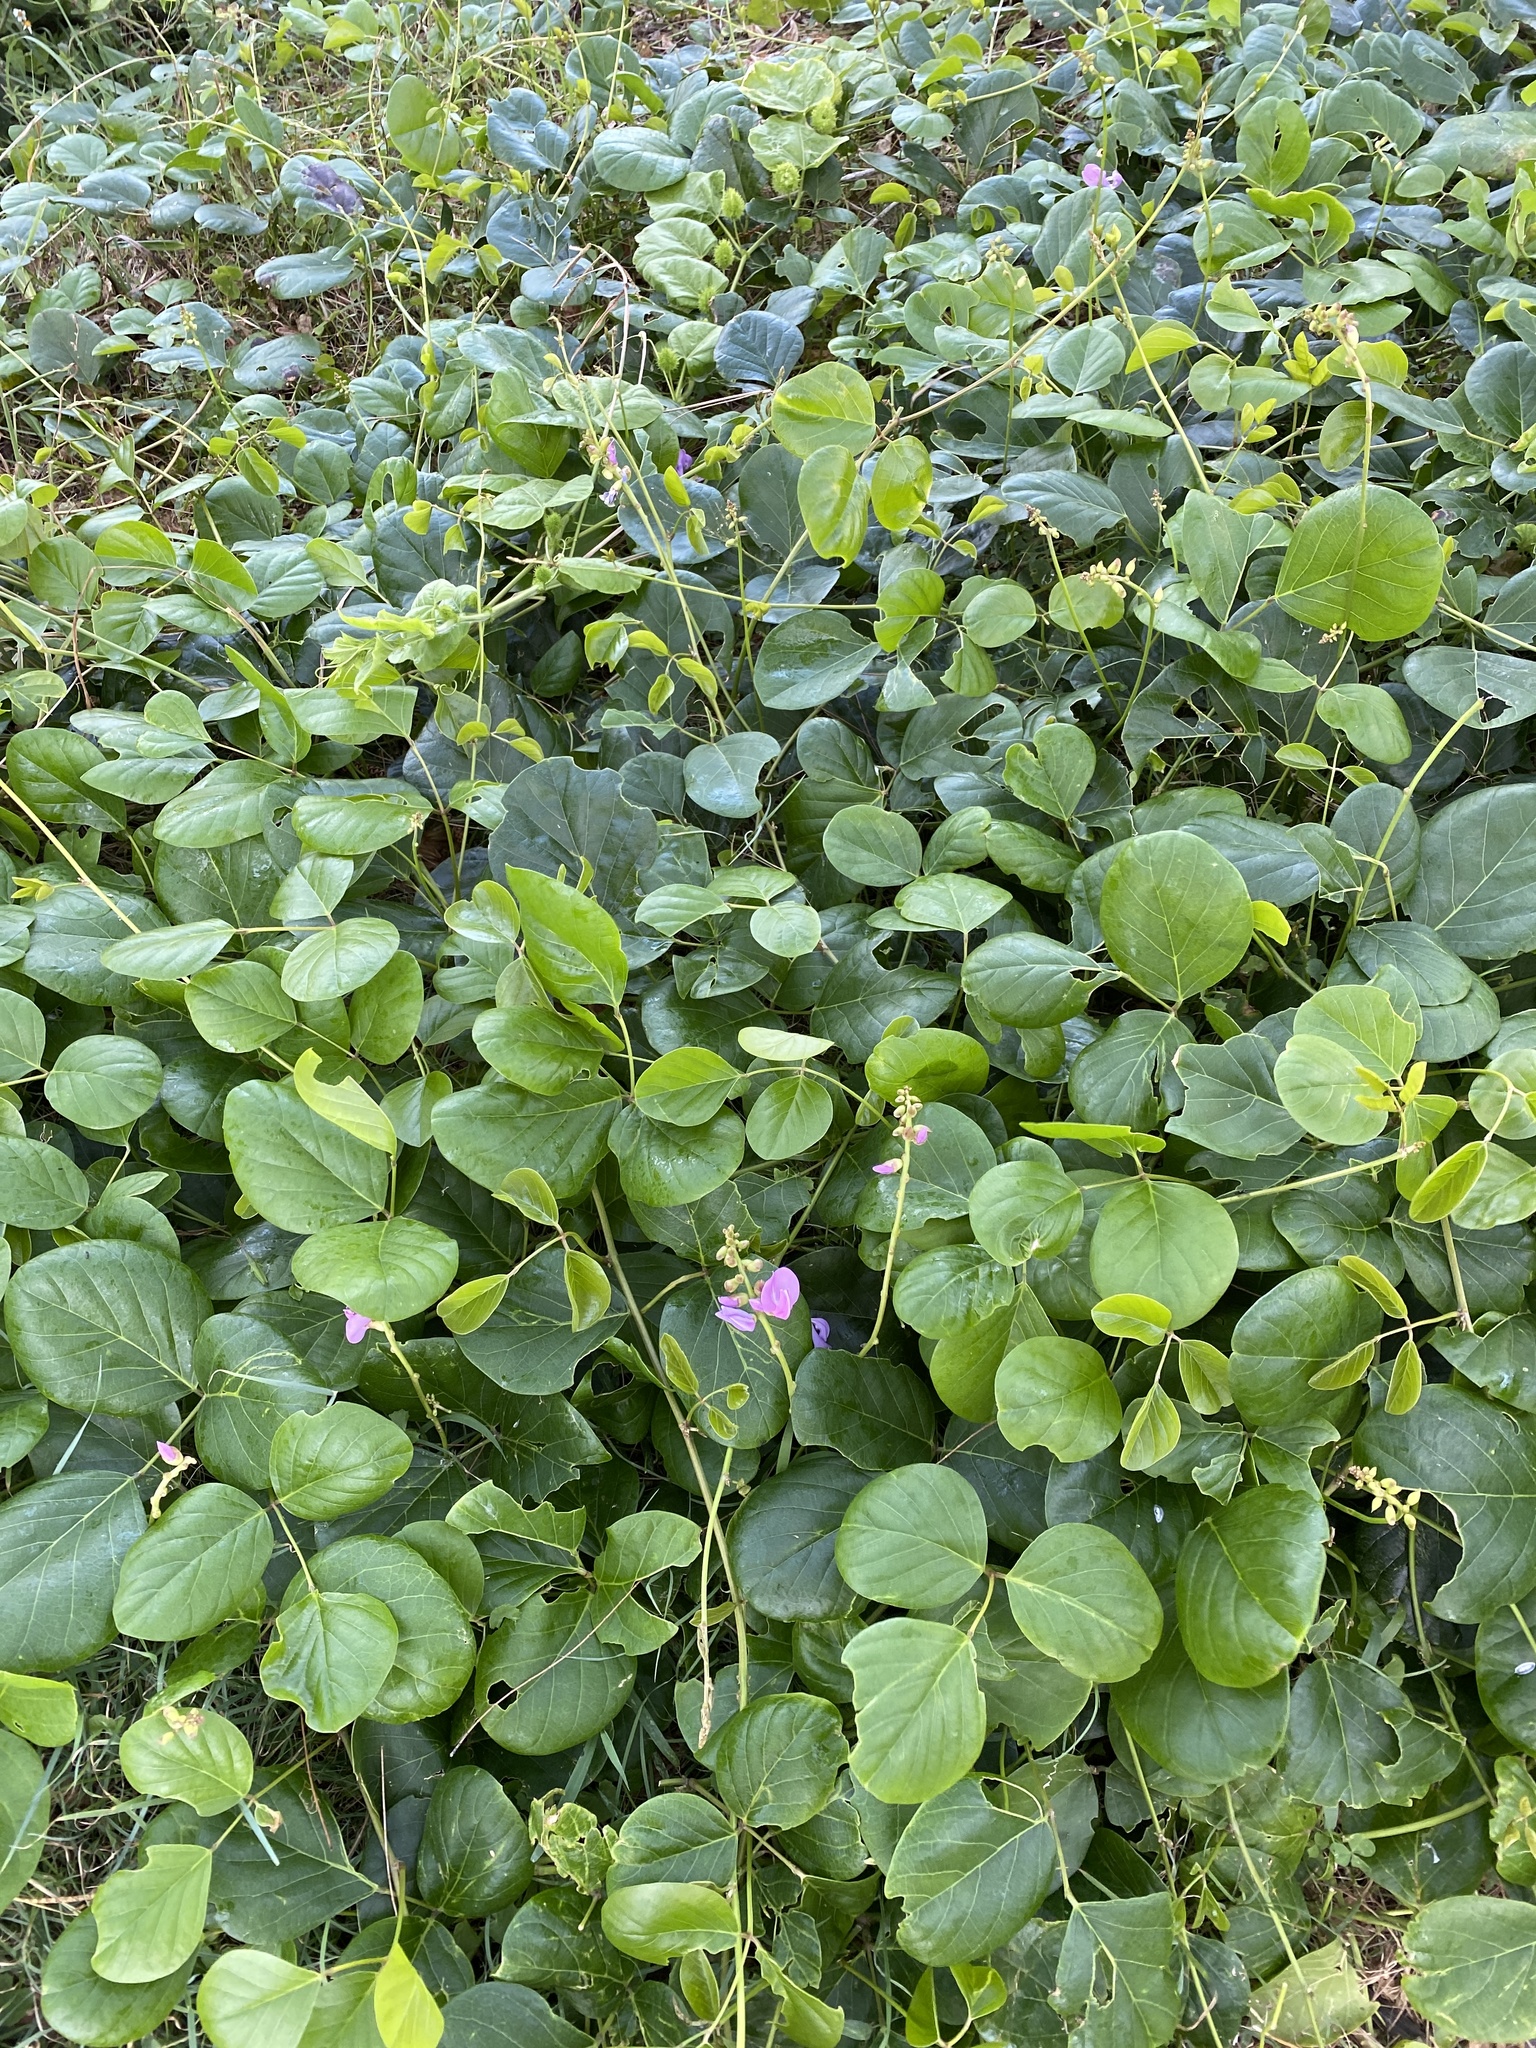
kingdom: Plantae
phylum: Tracheophyta
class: Magnoliopsida
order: Fabales
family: Fabaceae
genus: Canavalia
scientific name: Canavalia rosea
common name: Beach-bean
